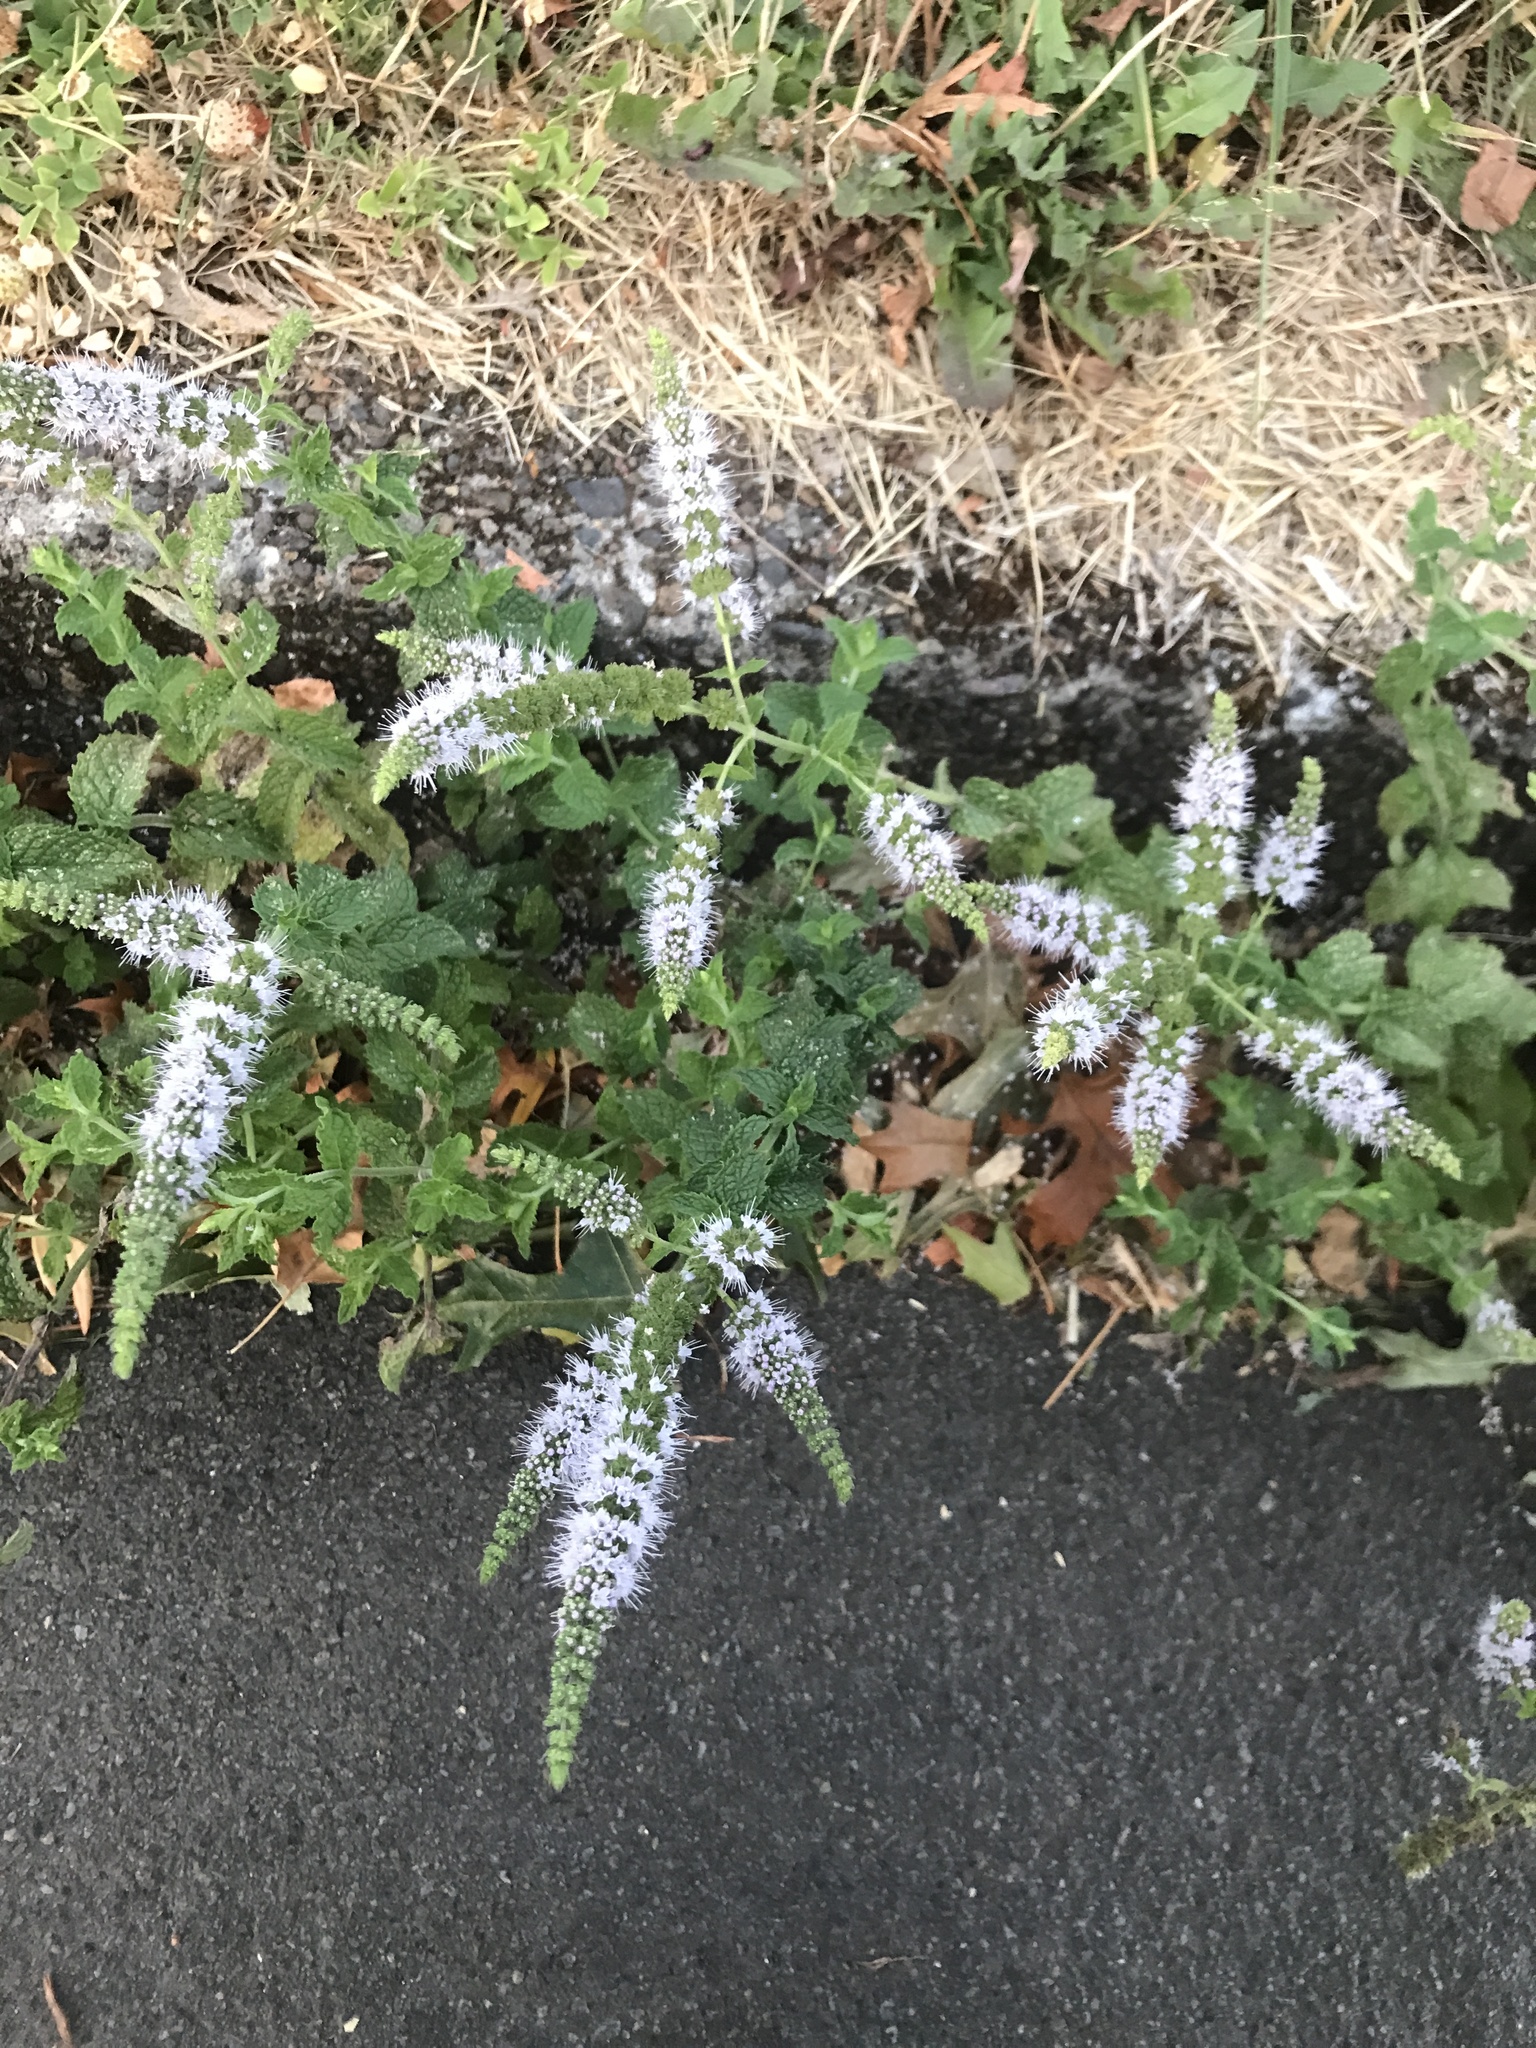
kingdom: Plantae
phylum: Tracheophyta
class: Magnoliopsida
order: Lamiales
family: Lamiaceae
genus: Mentha
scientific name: Mentha spicata
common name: Spearmint
